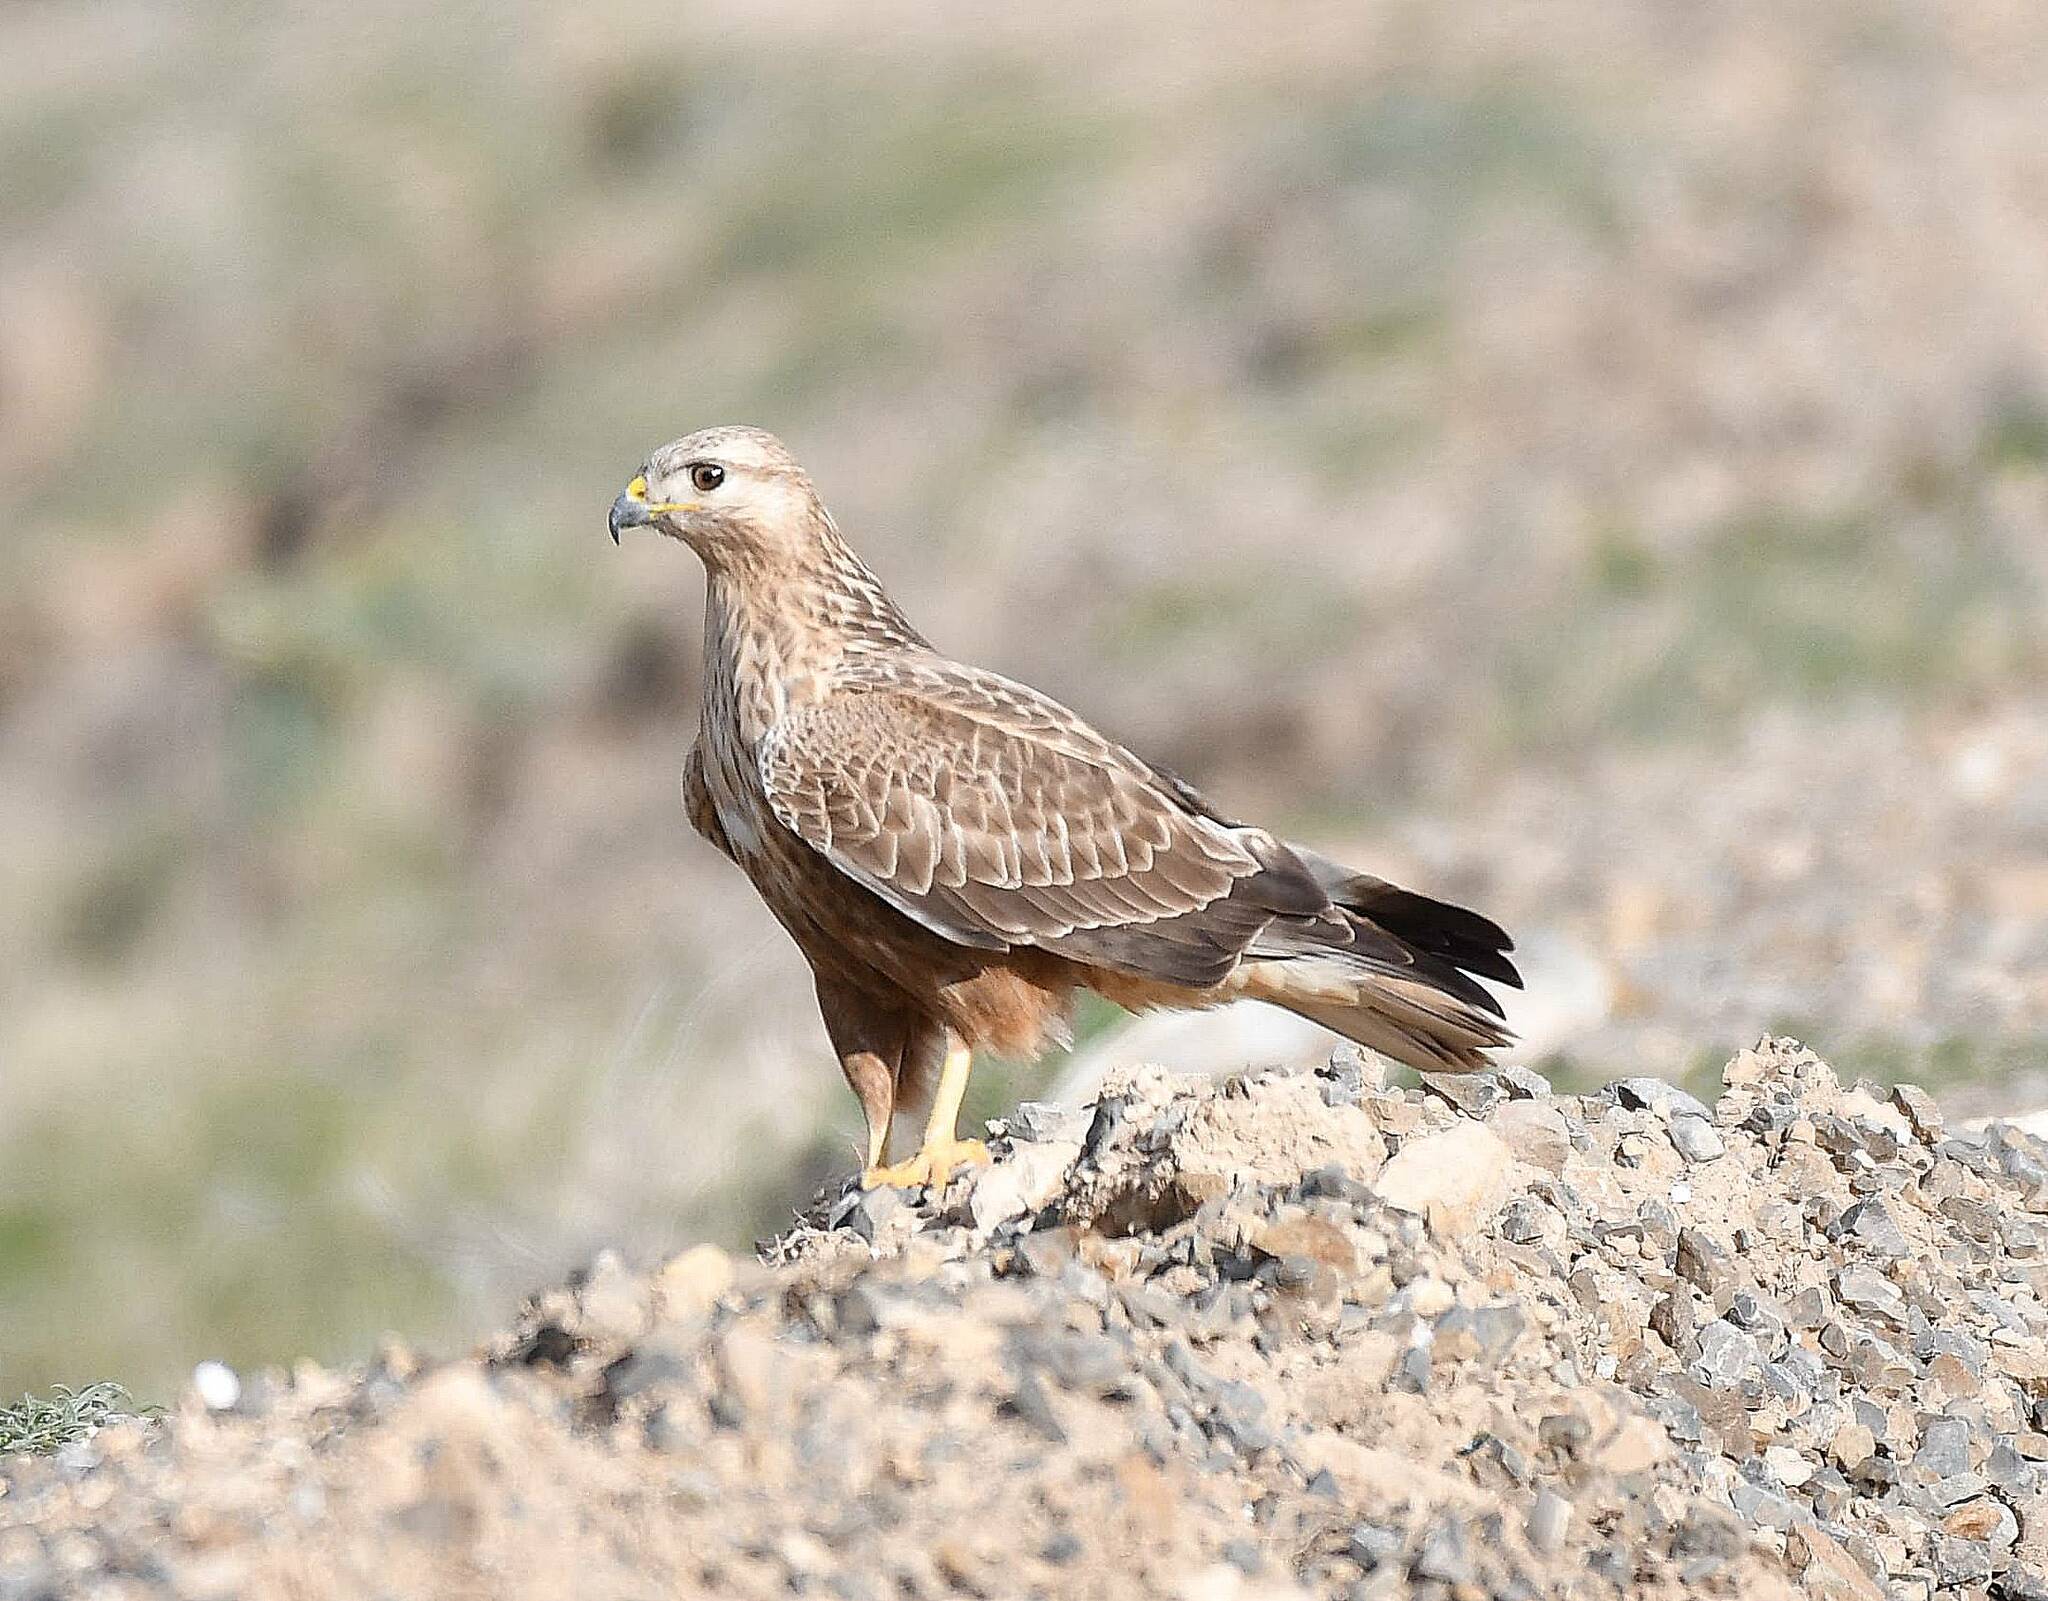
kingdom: Animalia
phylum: Chordata
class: Aves
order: Accipitriformes
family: Accipitridae
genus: Buteo
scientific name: Buteo rufinus
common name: Long-legged buzzard
